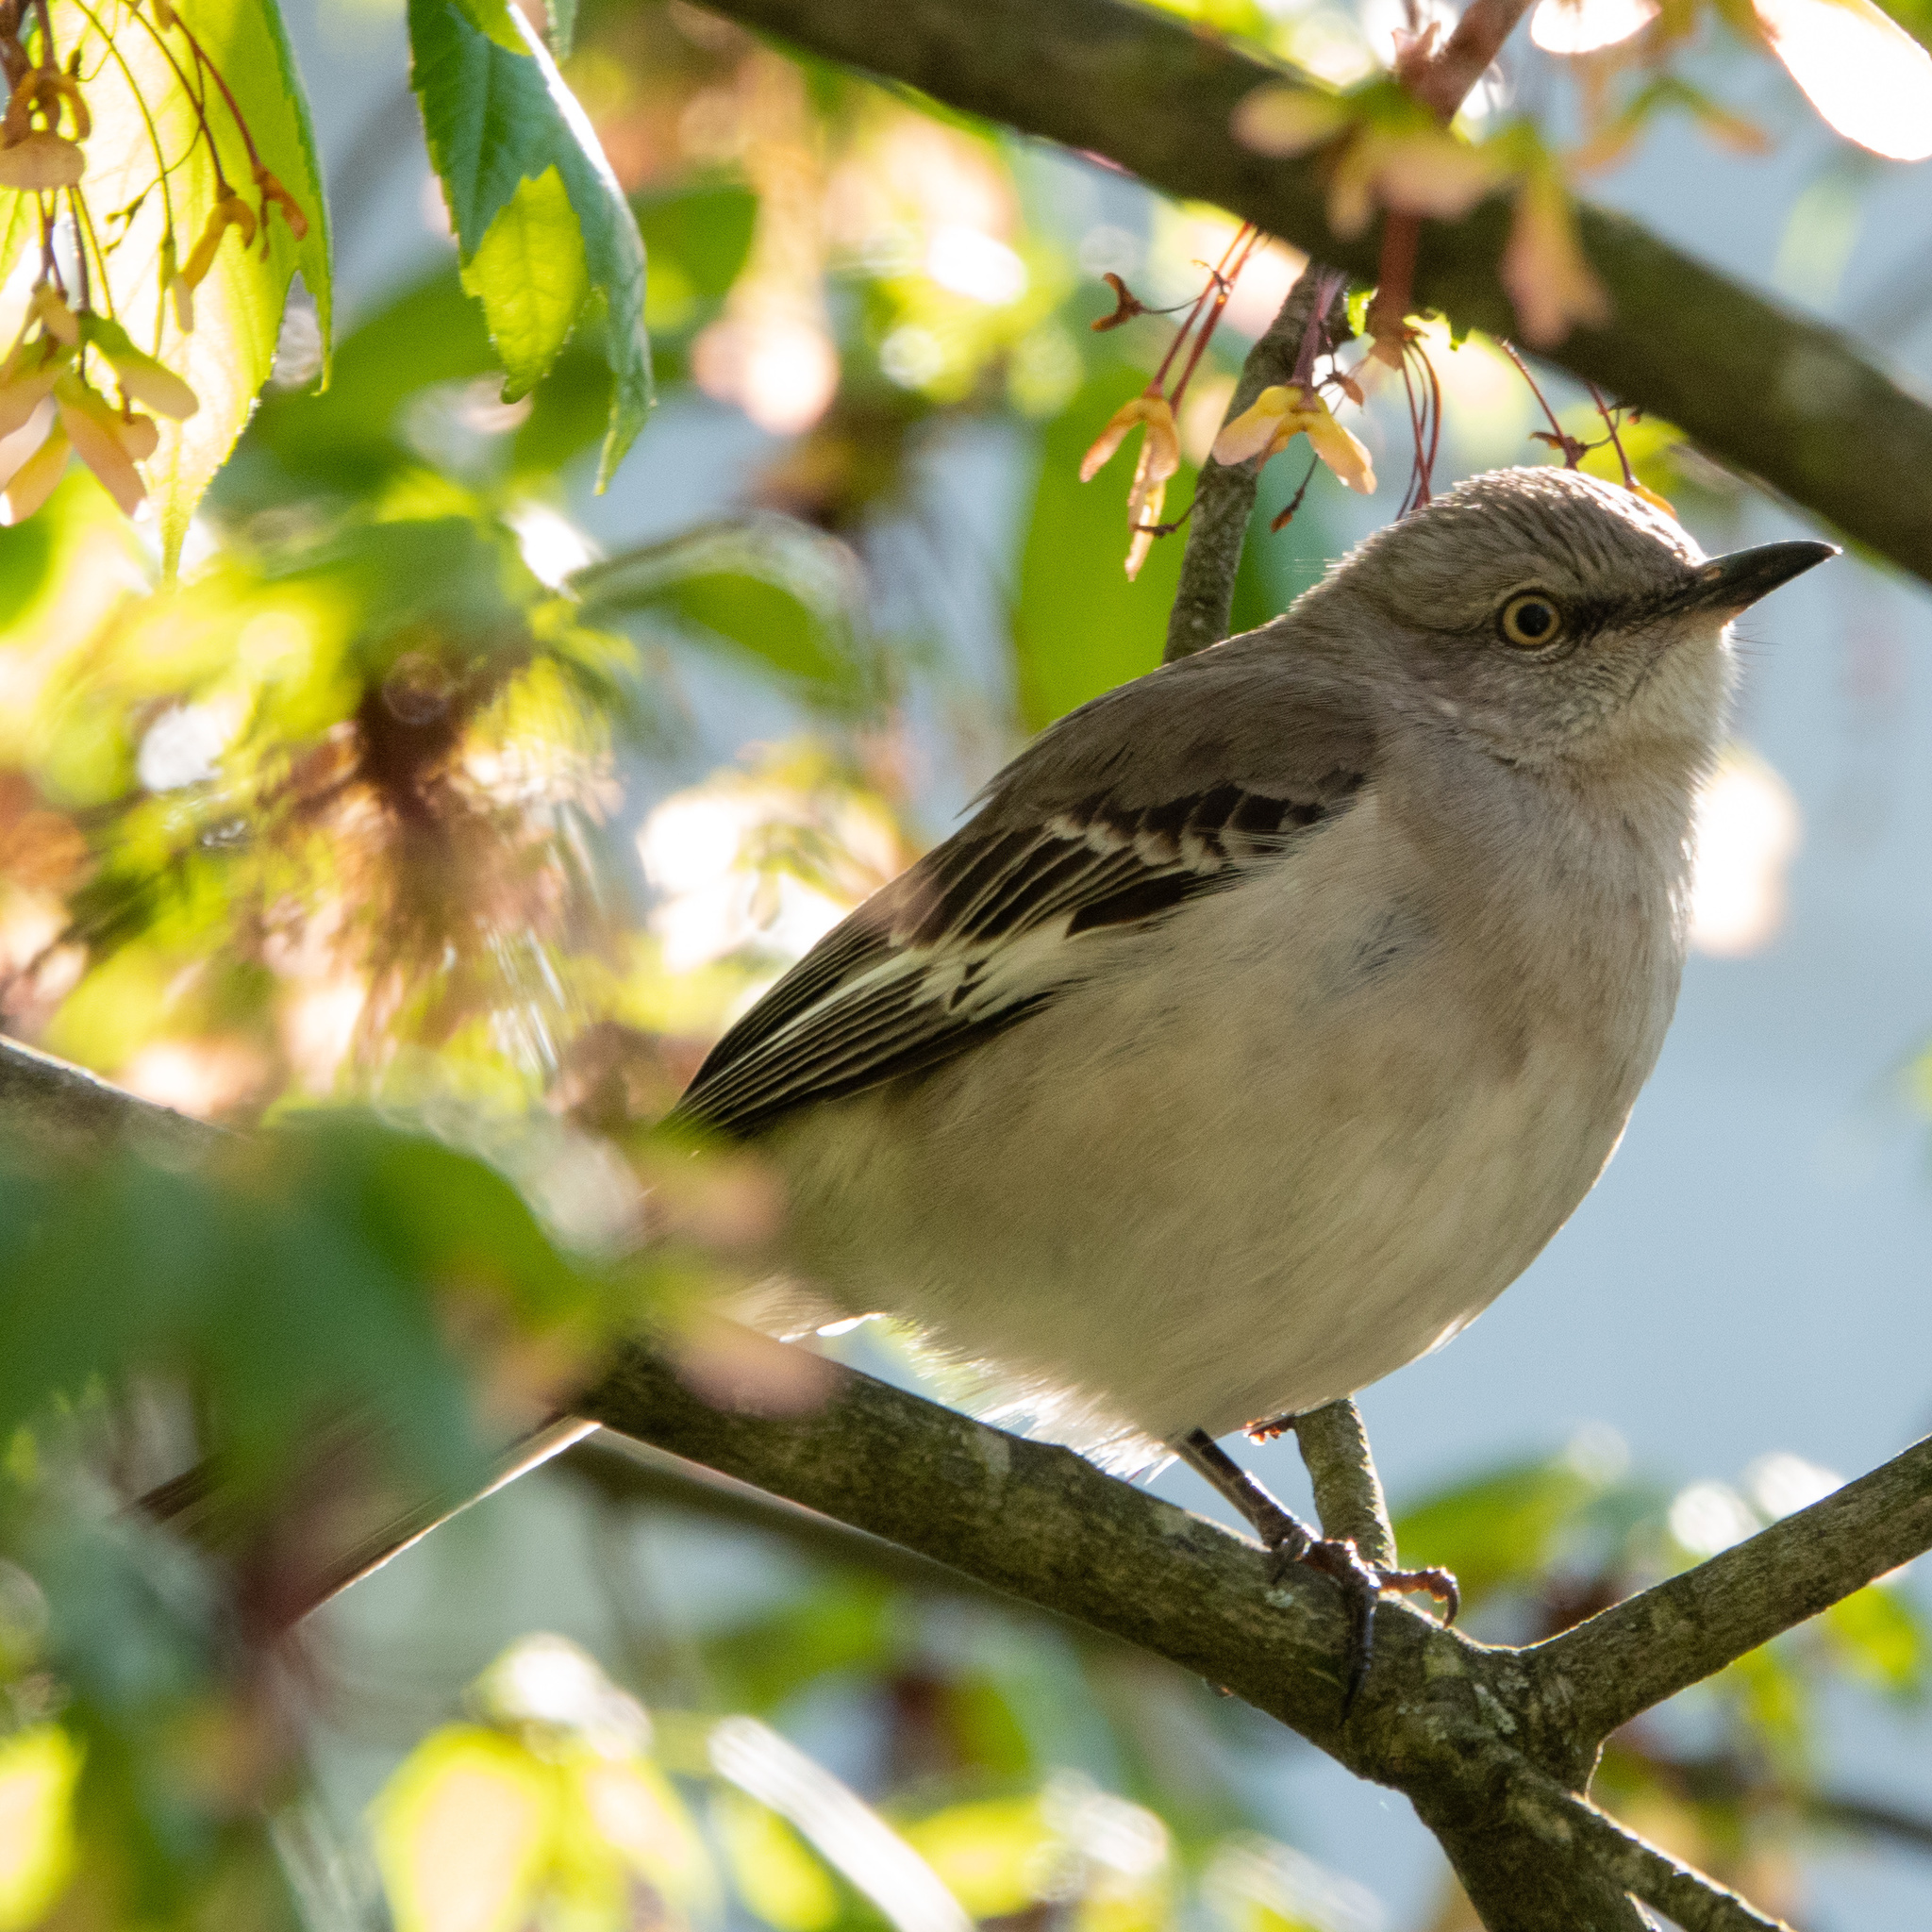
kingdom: Animalia
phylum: Chordata
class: Aves
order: Passeriformes
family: Mimidae
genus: Mimus
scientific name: Mimus polyglottos
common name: Northern mockingbird
